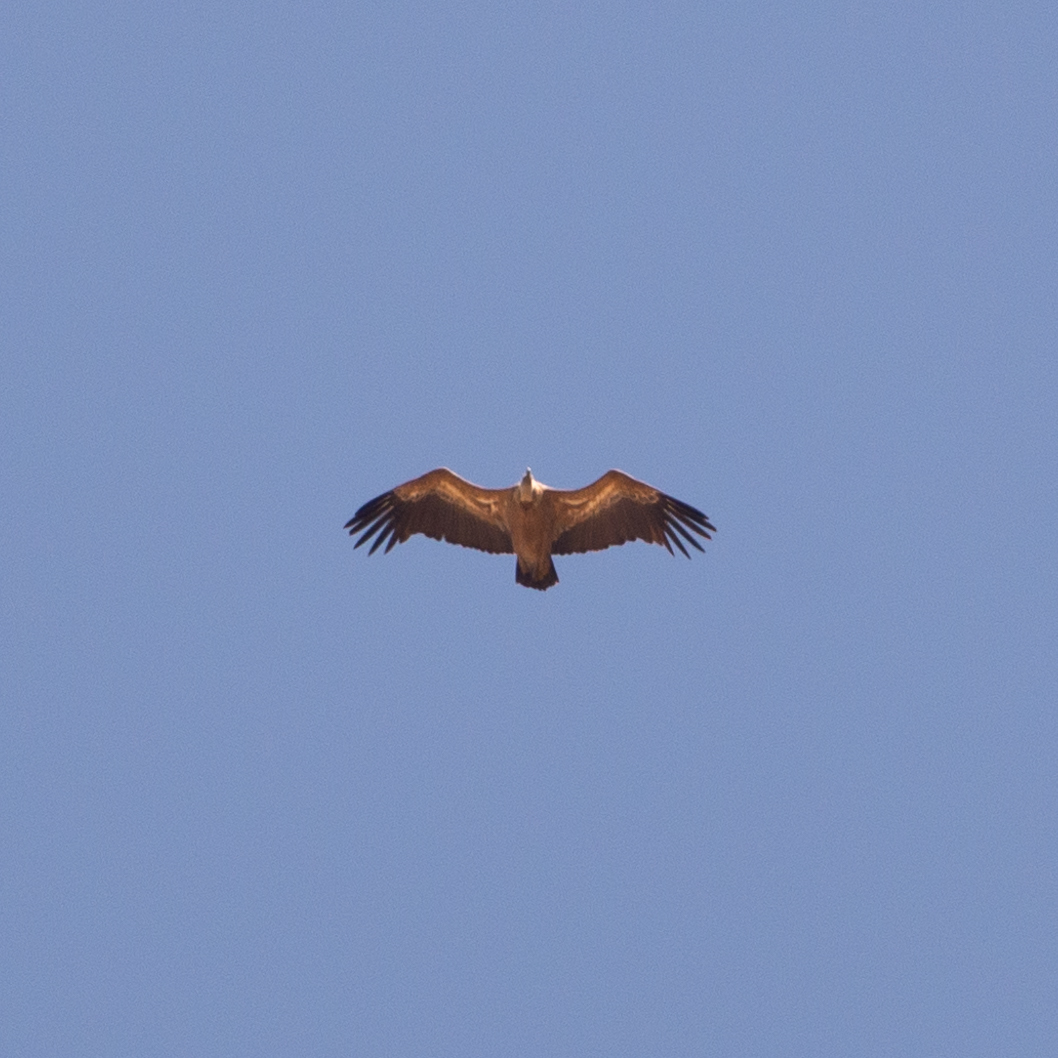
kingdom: Animalia
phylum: Chordata
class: Aves
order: Accipitriformes
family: Accipitridae
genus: Gyps
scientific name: Gyps fulvus
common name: Griffon vulture
